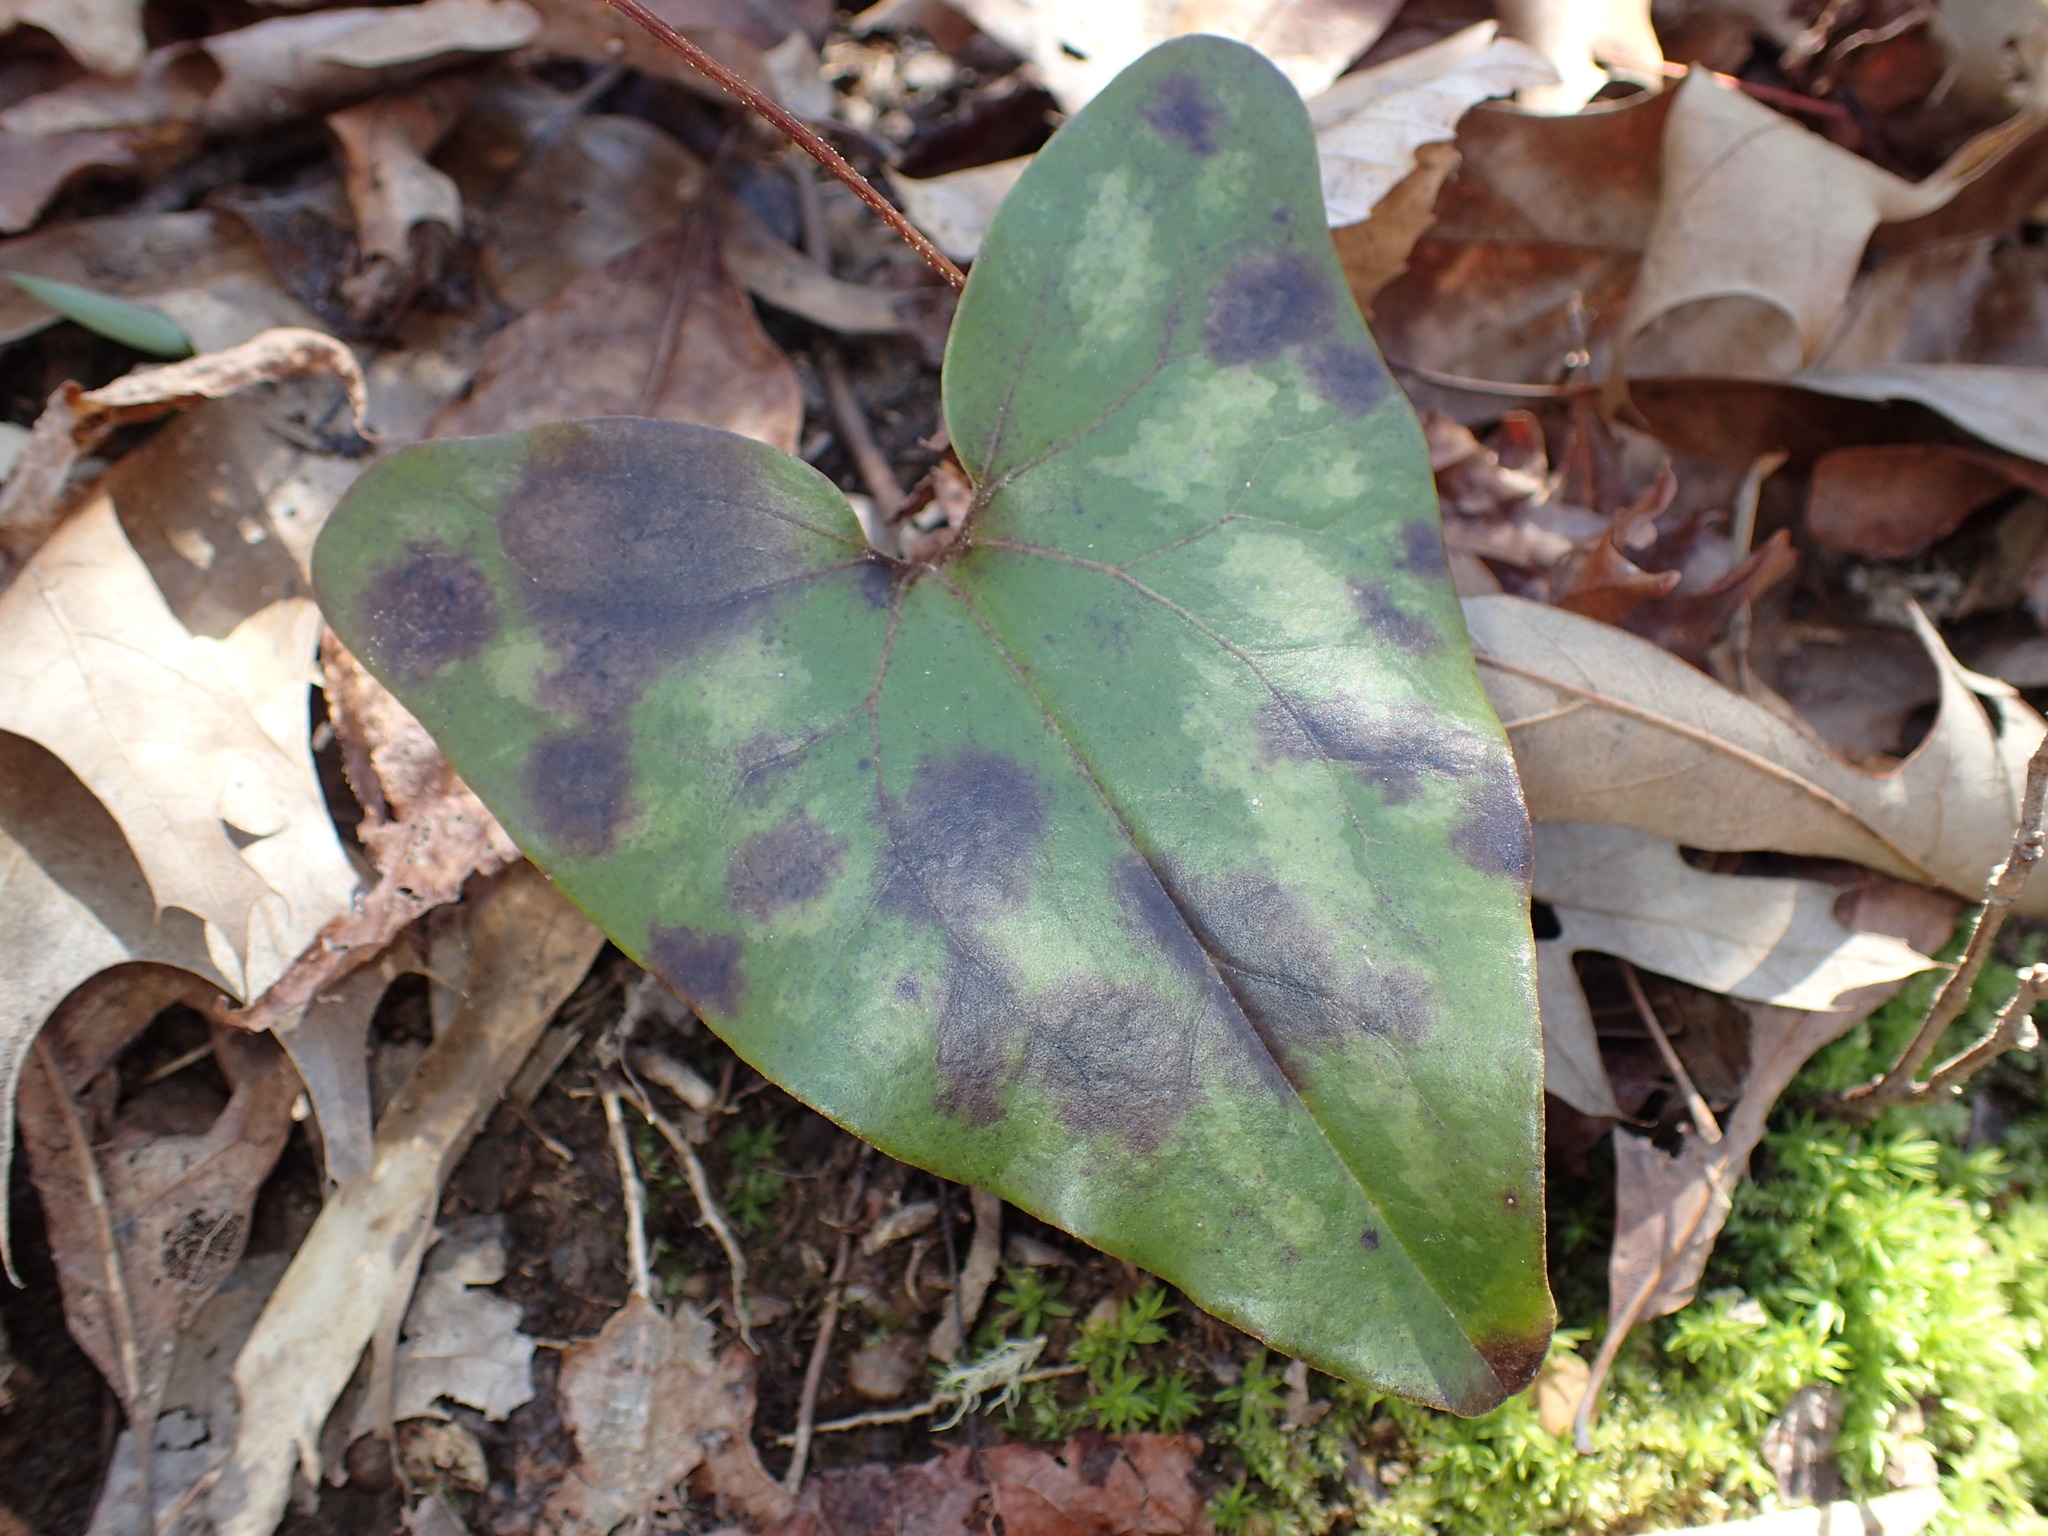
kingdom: Plantae
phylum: Tracheophyta
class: Magnoliopsida
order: Piperales
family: Aristolochiaceae
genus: Hexastylis
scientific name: Hexastylis arifolia
